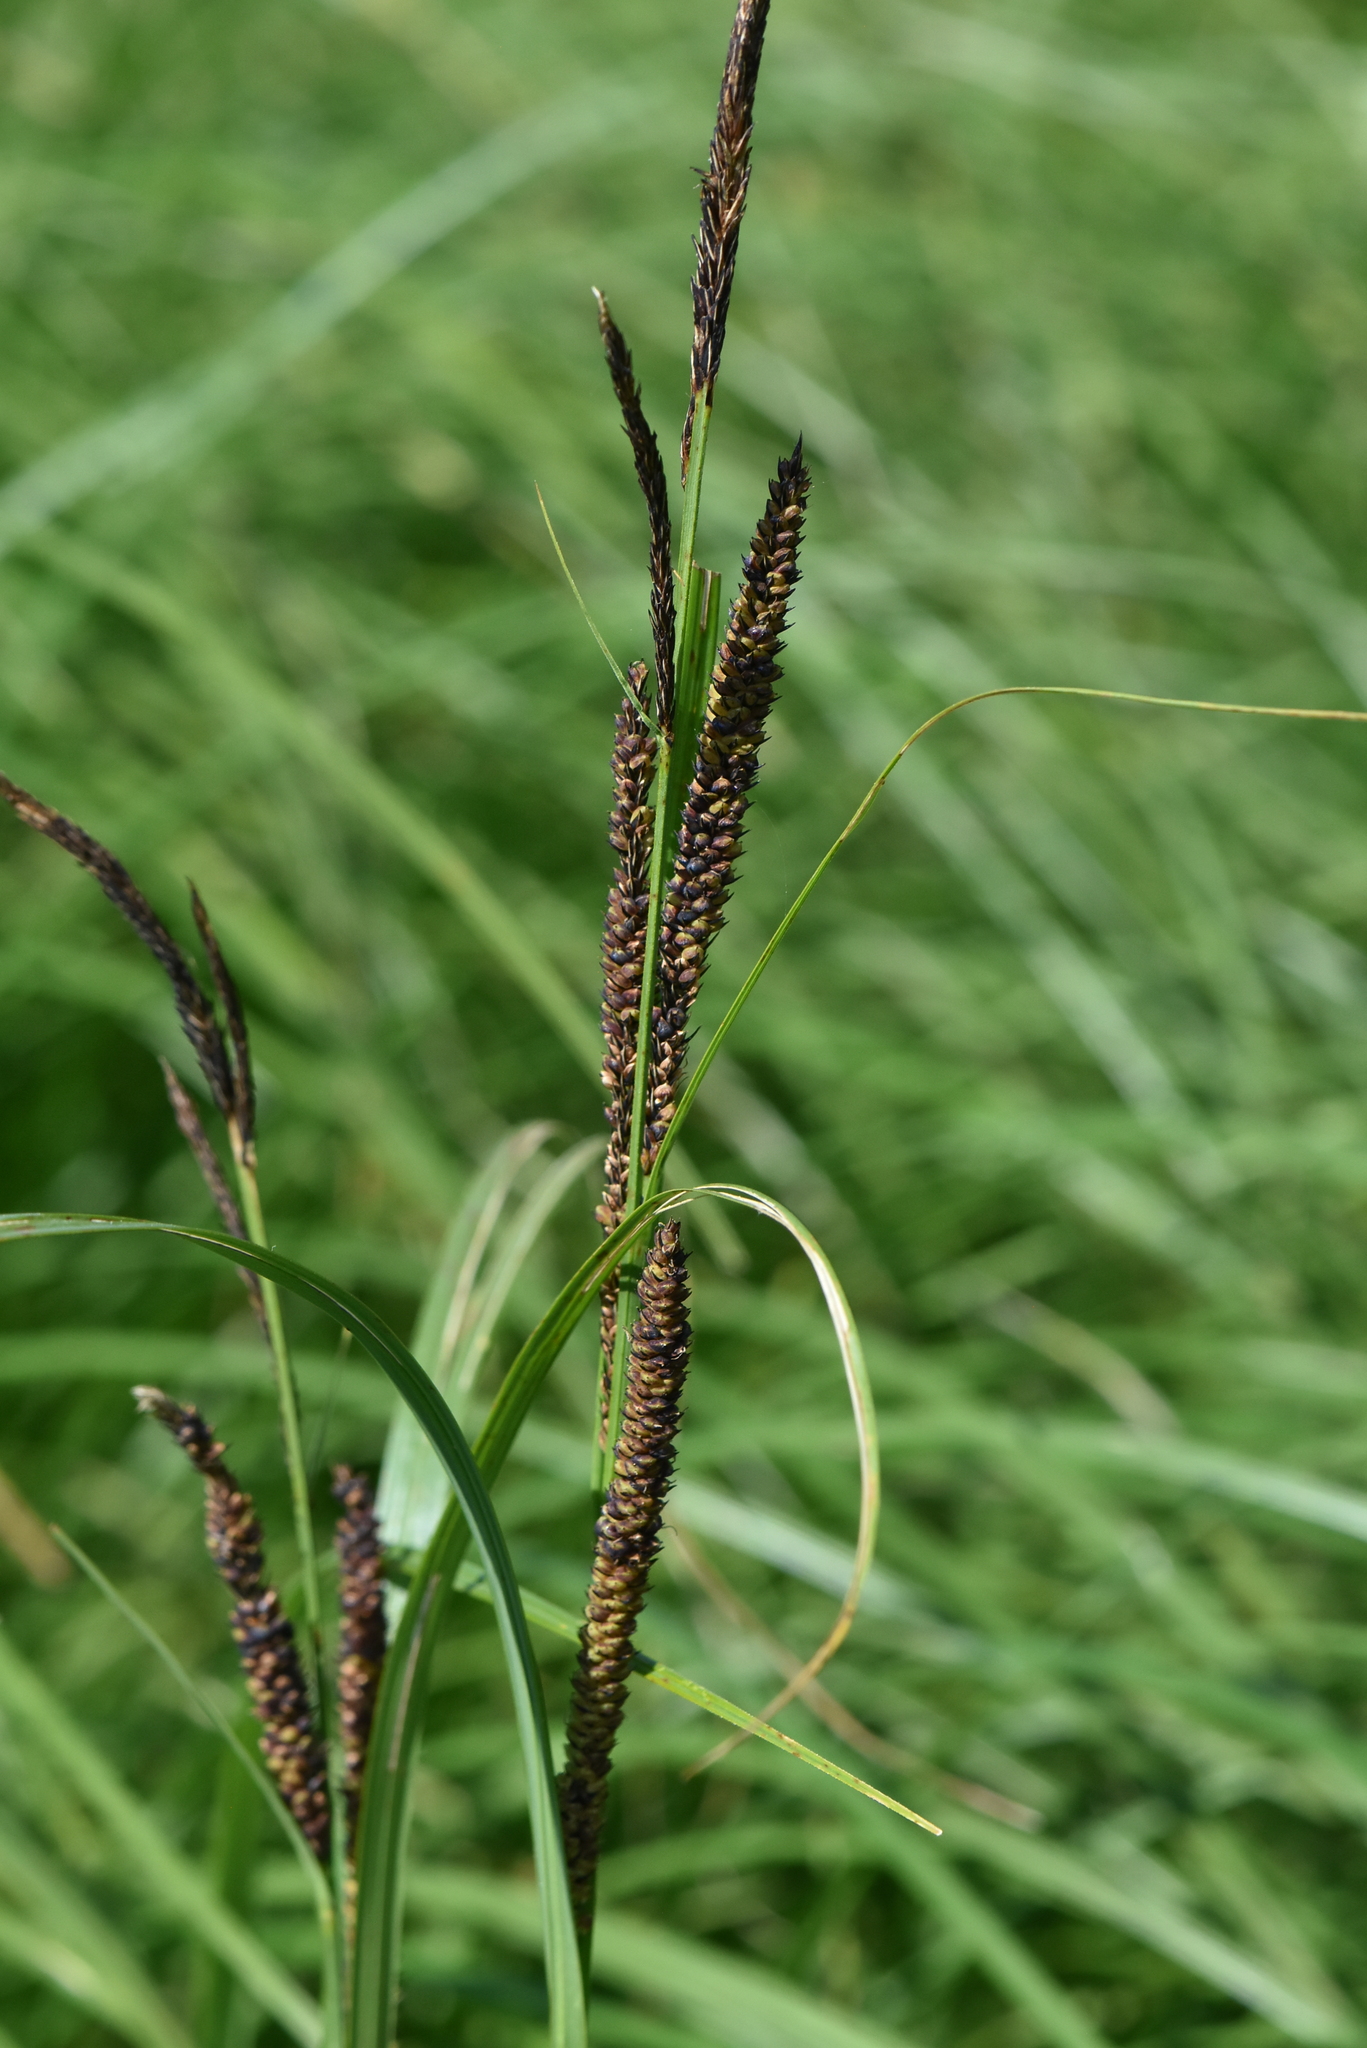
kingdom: Plantae
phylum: Tracheophyta
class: Liliopsida
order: Poales
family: Cyperaceae
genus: Carex
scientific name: Carex acuta
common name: Slender tufted-sedge
